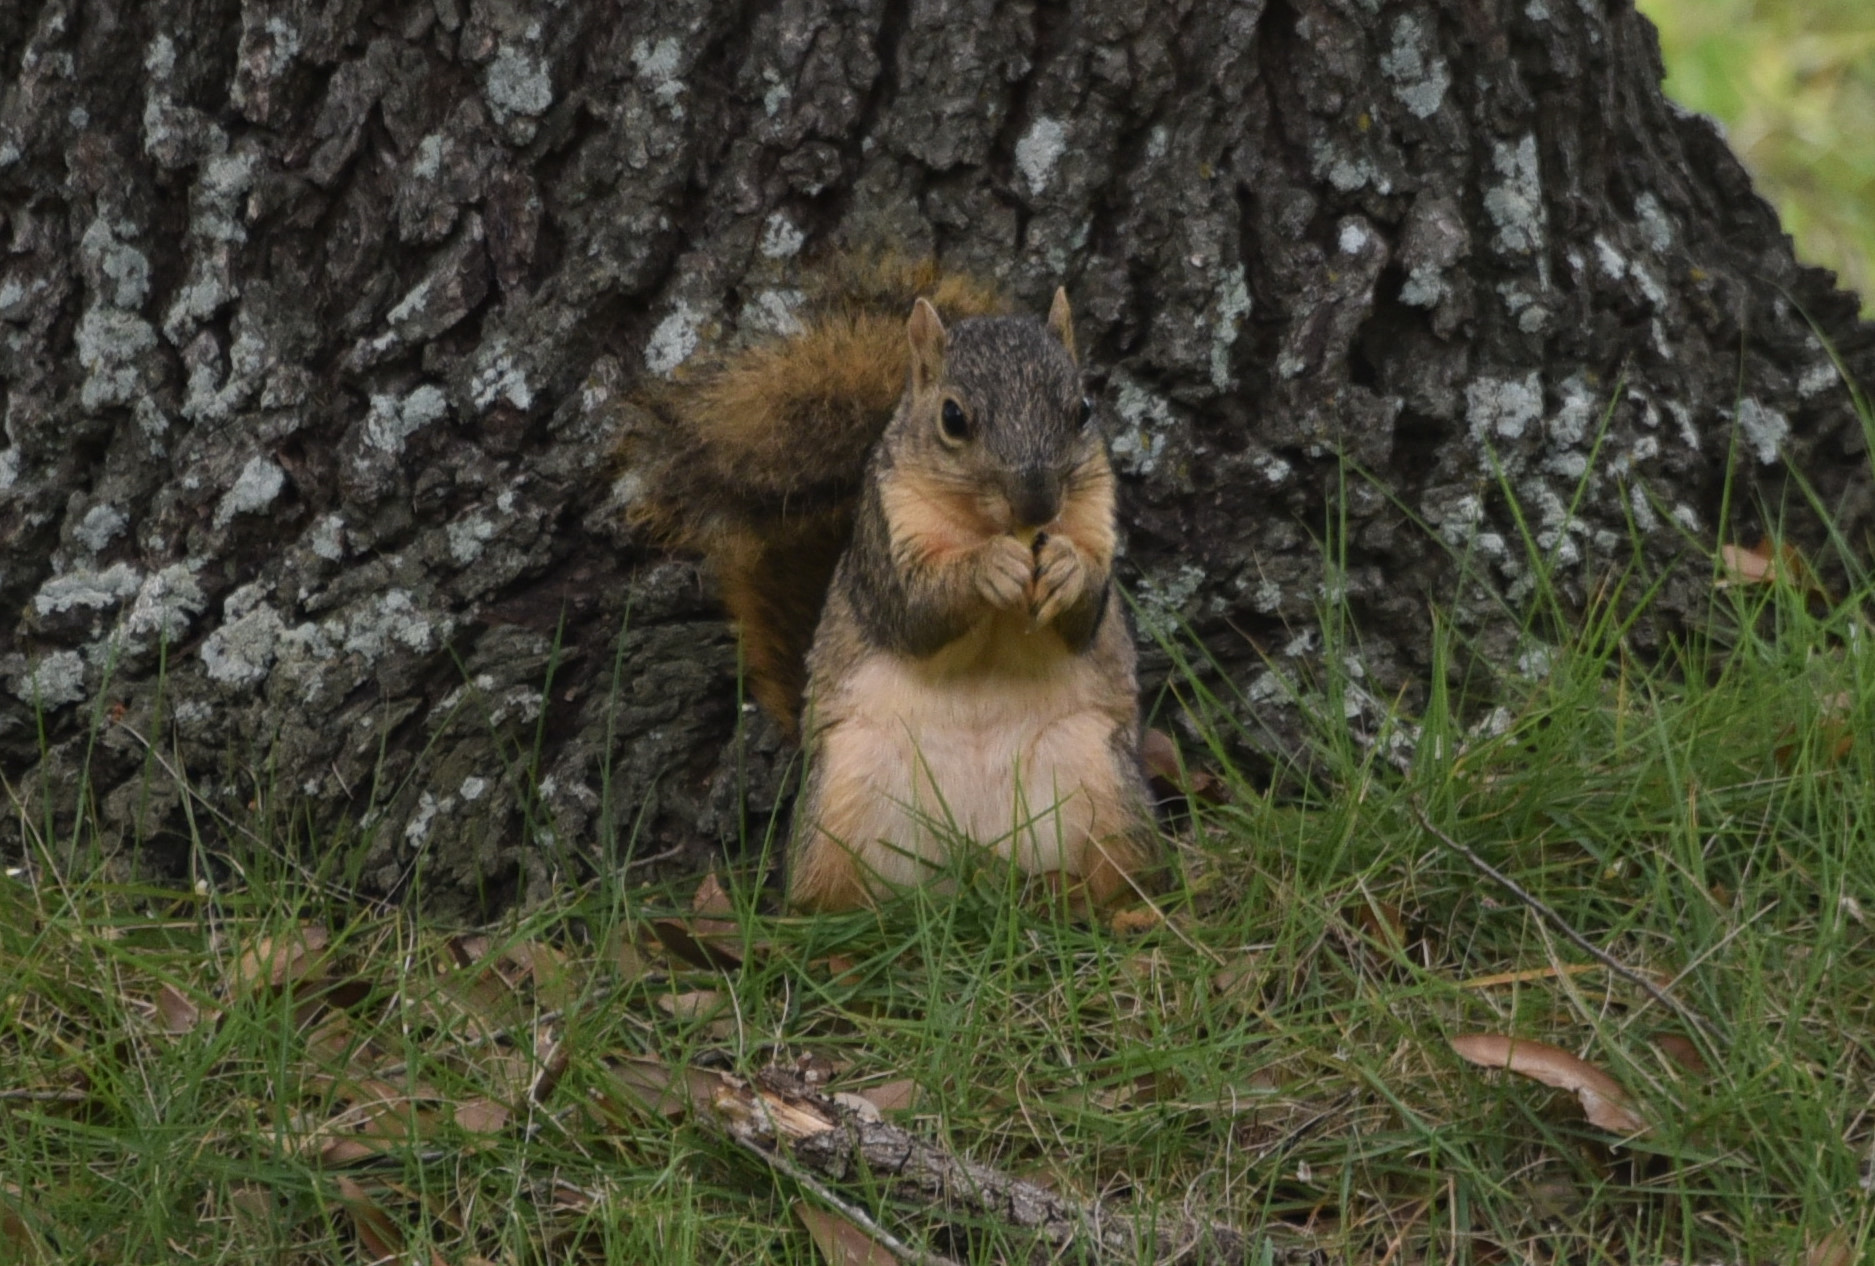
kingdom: Animalia
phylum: Chordata
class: Mammalia
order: Rodentia
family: Sciuridae
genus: Sciurus
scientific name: Sciurus niger
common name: Fox squirrel
